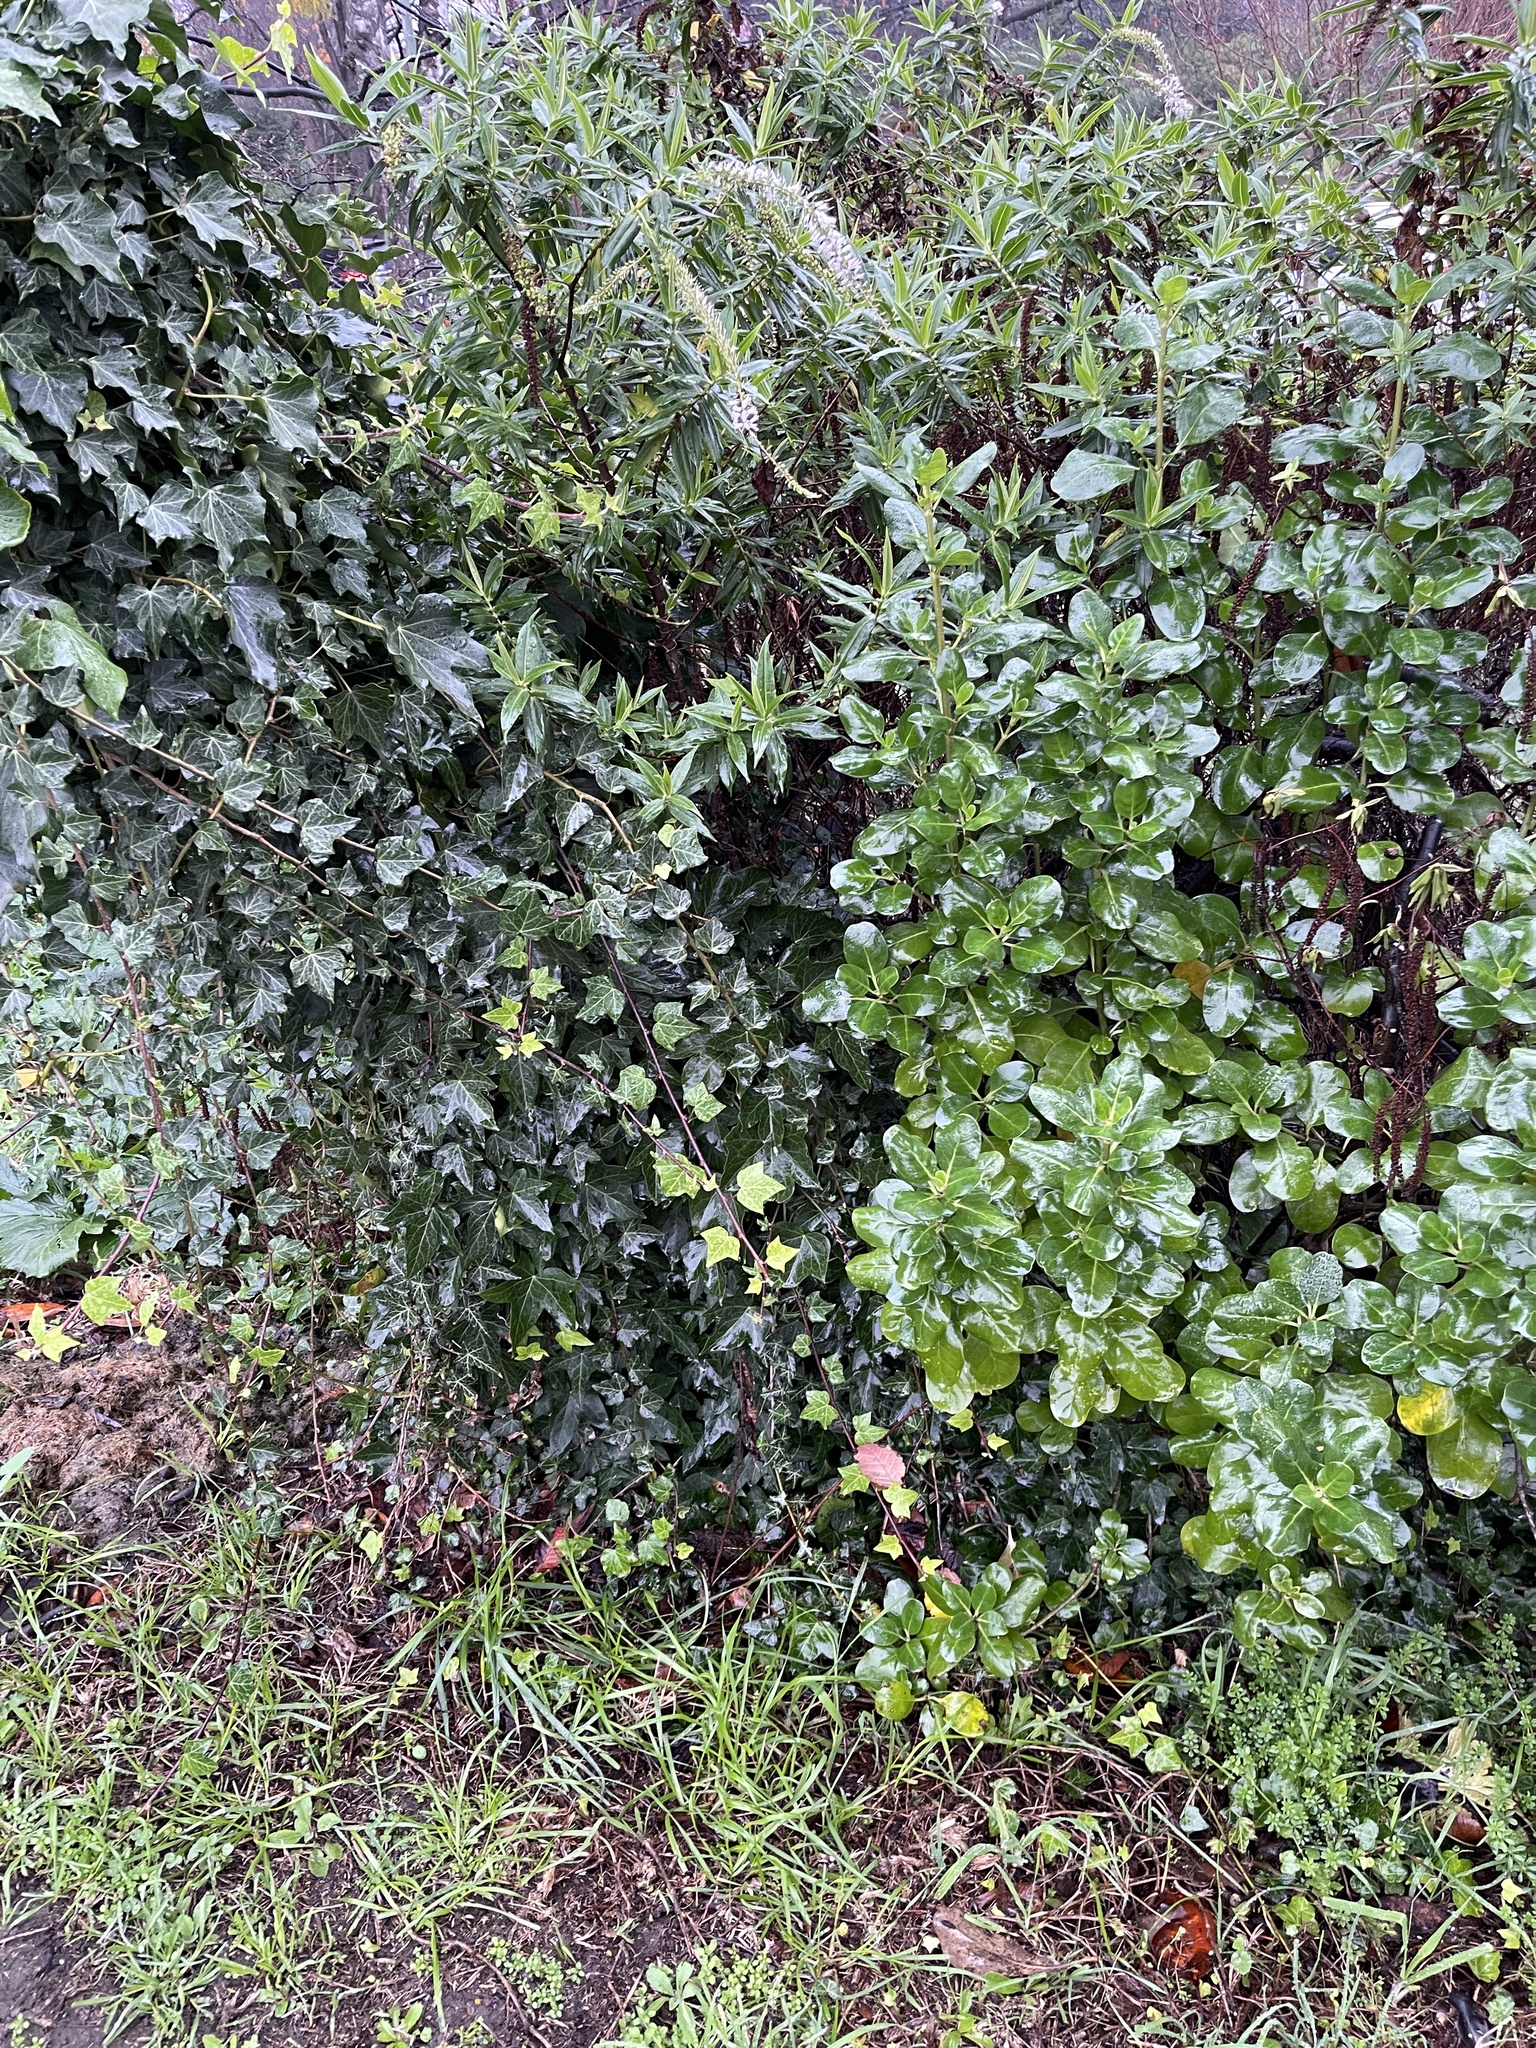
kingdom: Plantae
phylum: Tracheophyta
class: Magnoliopsida
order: Apiales
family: Araliaceae
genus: Hedera
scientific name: Hedera helix
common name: Ivy
